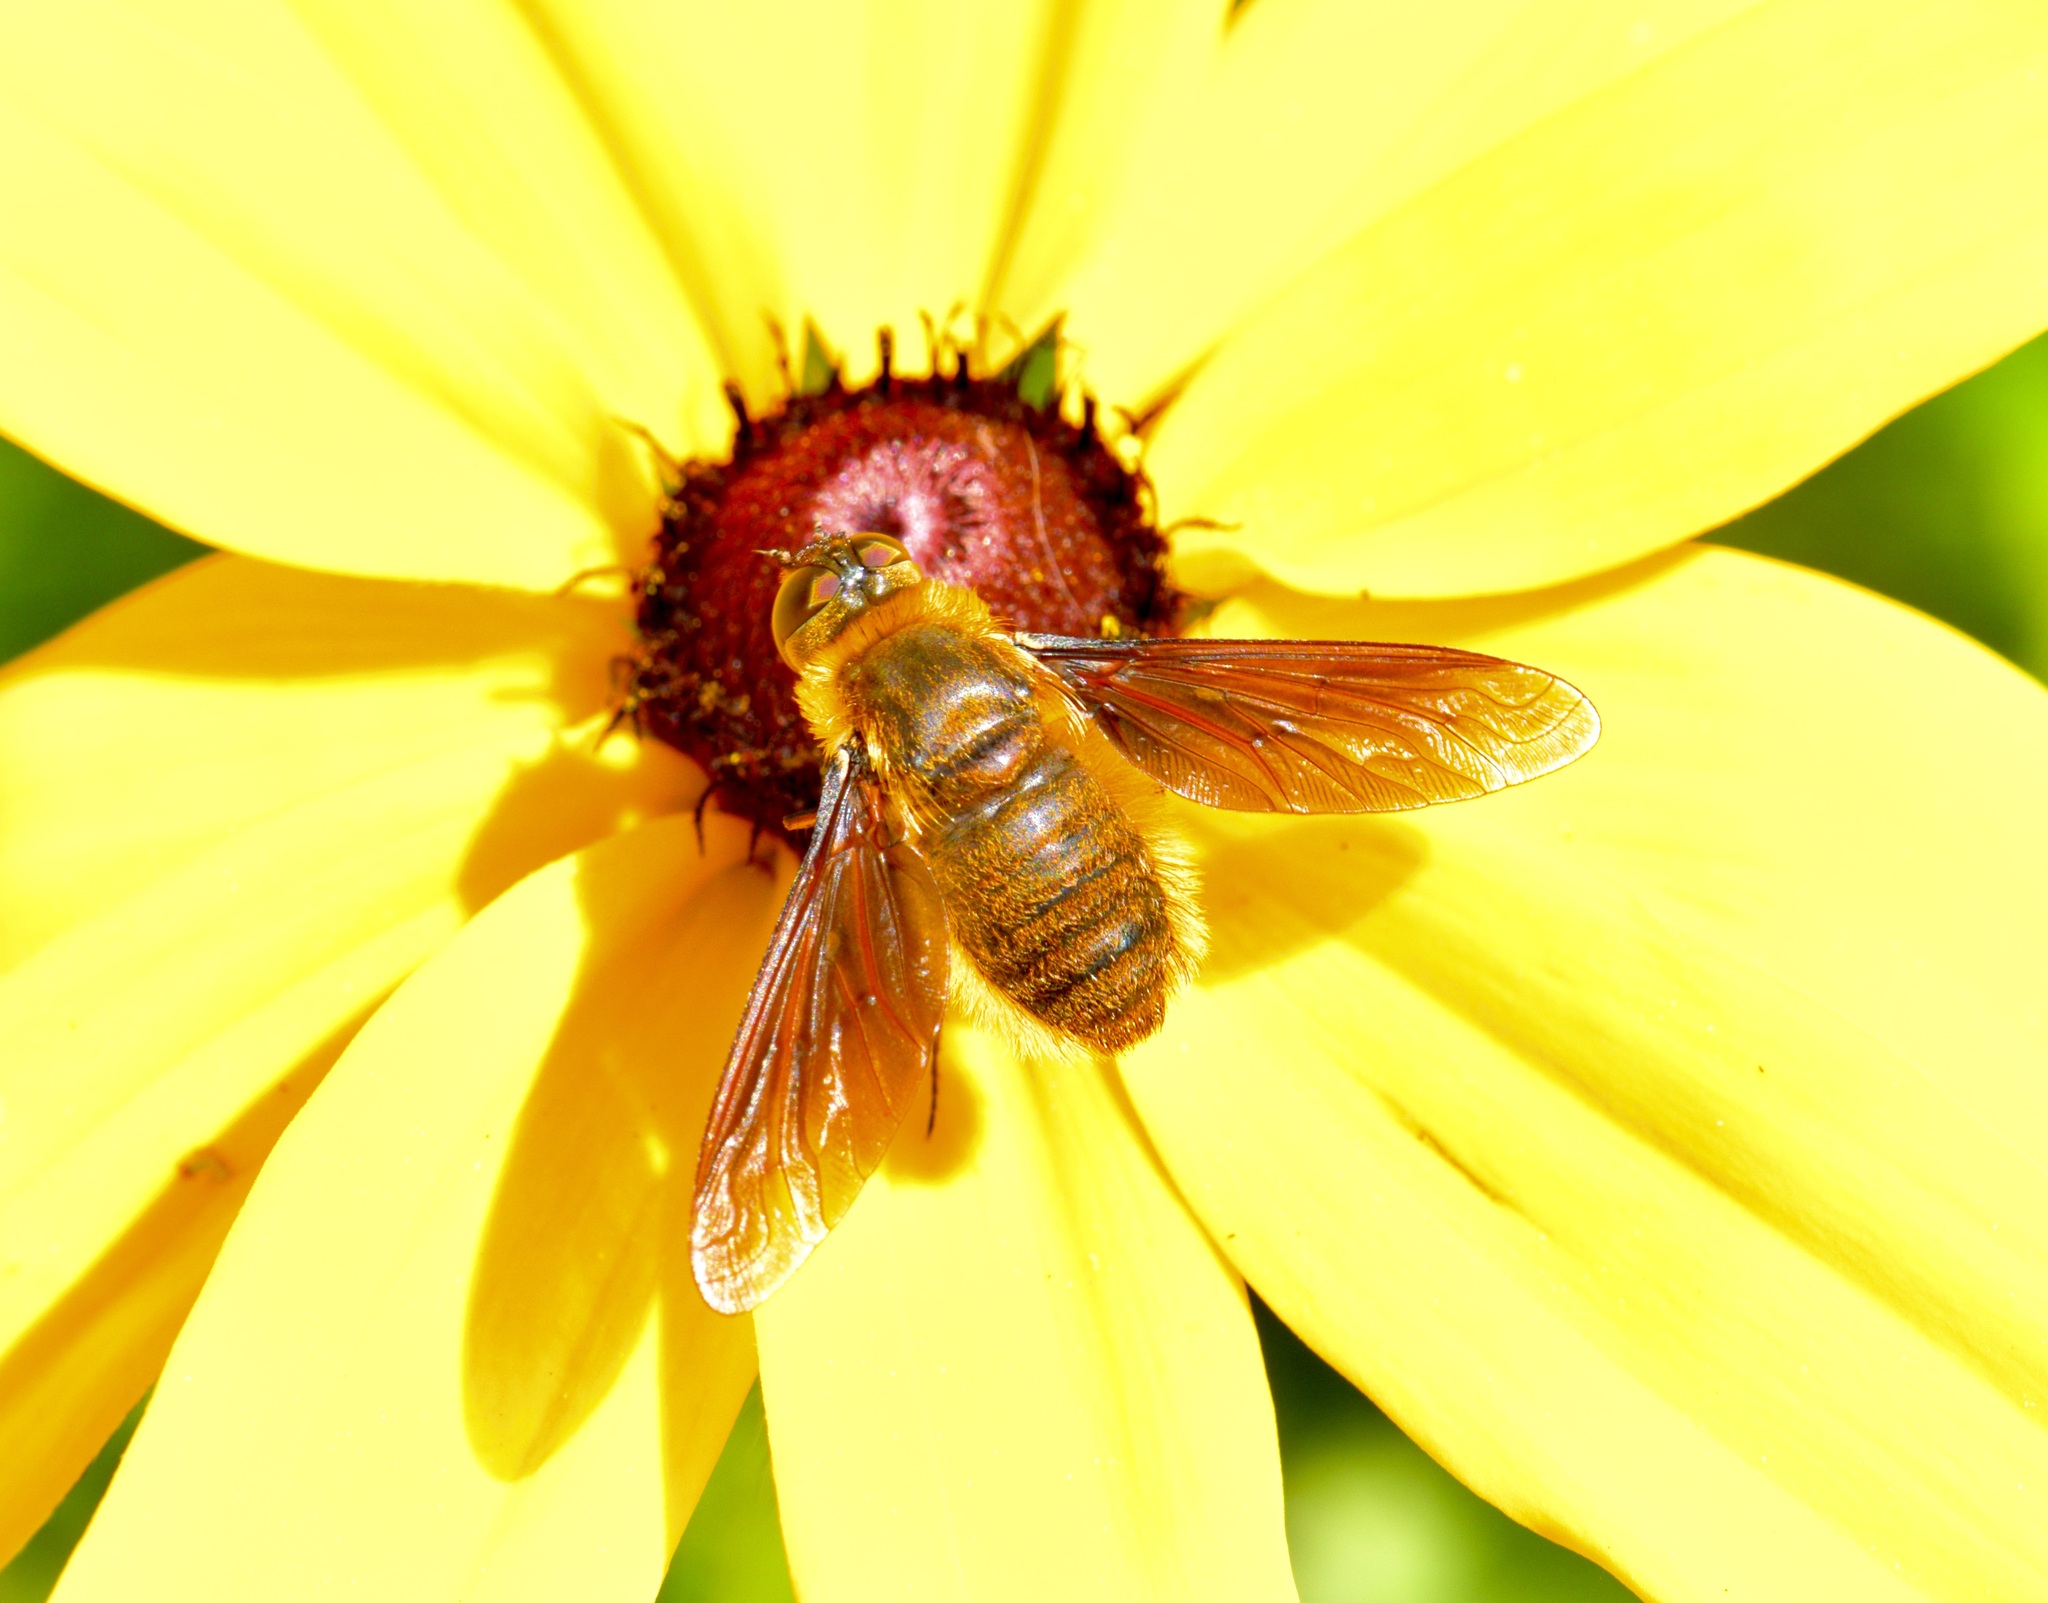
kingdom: Animalia
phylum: Arthropoda
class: Insecta
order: Diptera
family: Bombyliidae
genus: Poecilanthrax
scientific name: Poecilanthrax tegminipennis
